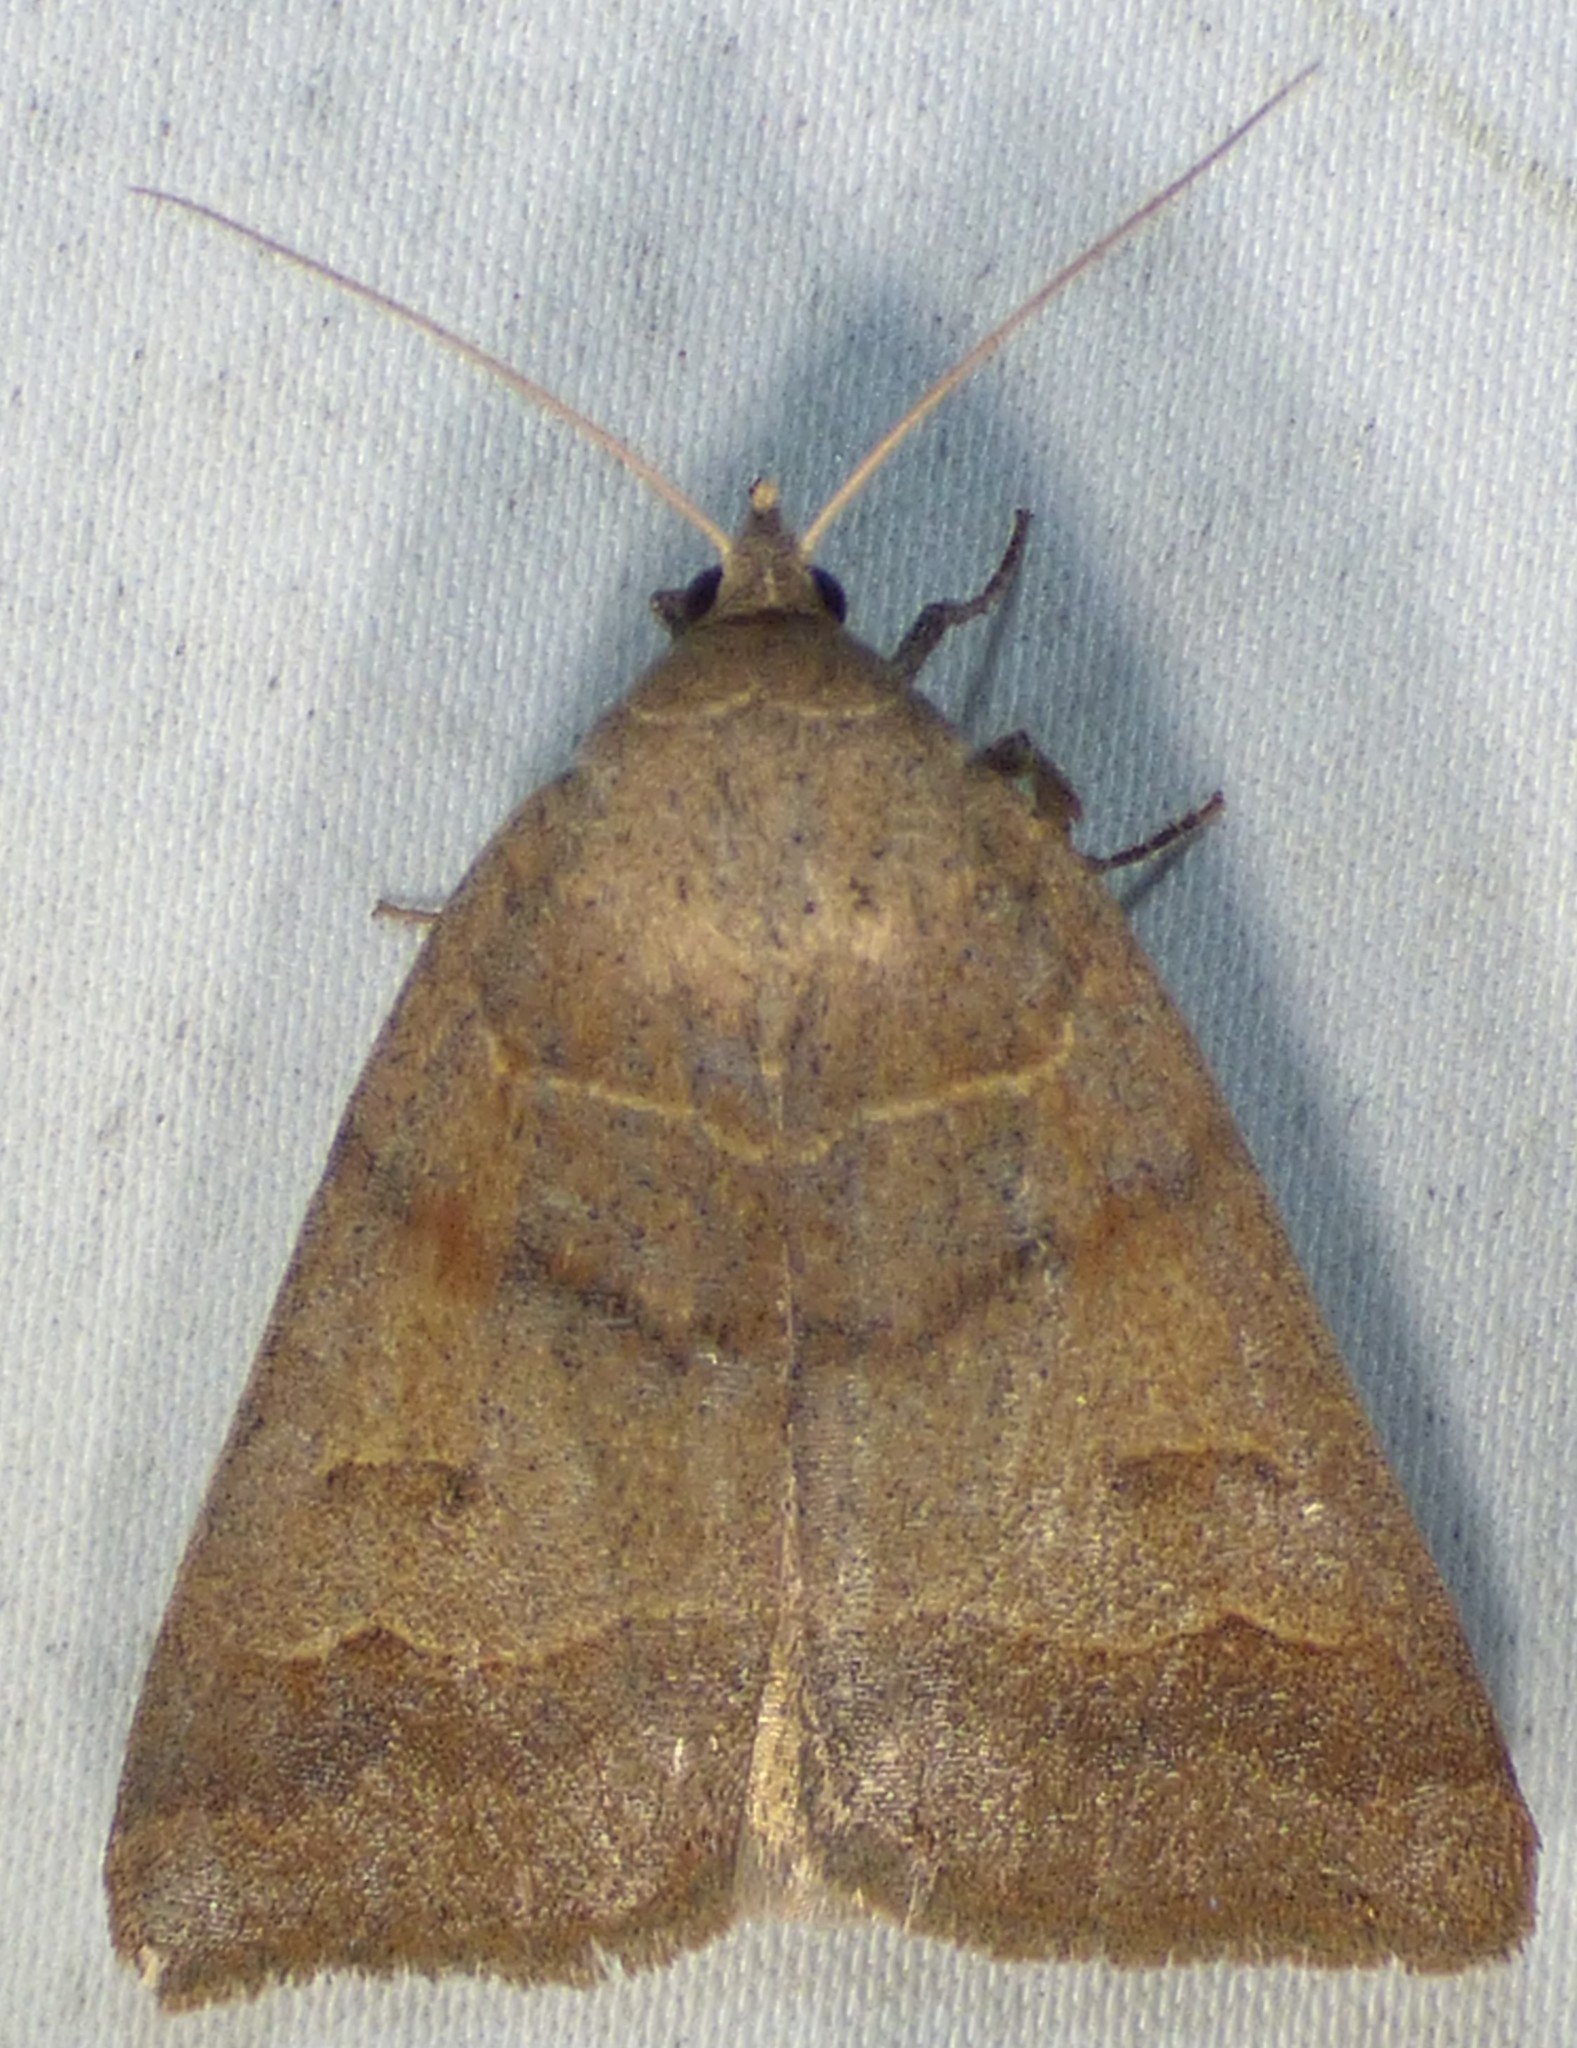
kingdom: Animalia
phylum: Arthropoda
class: Insecta
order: Lepidoptera
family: Erebidae
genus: Phoberia
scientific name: Phoberia atomaris
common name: Common oak moth
